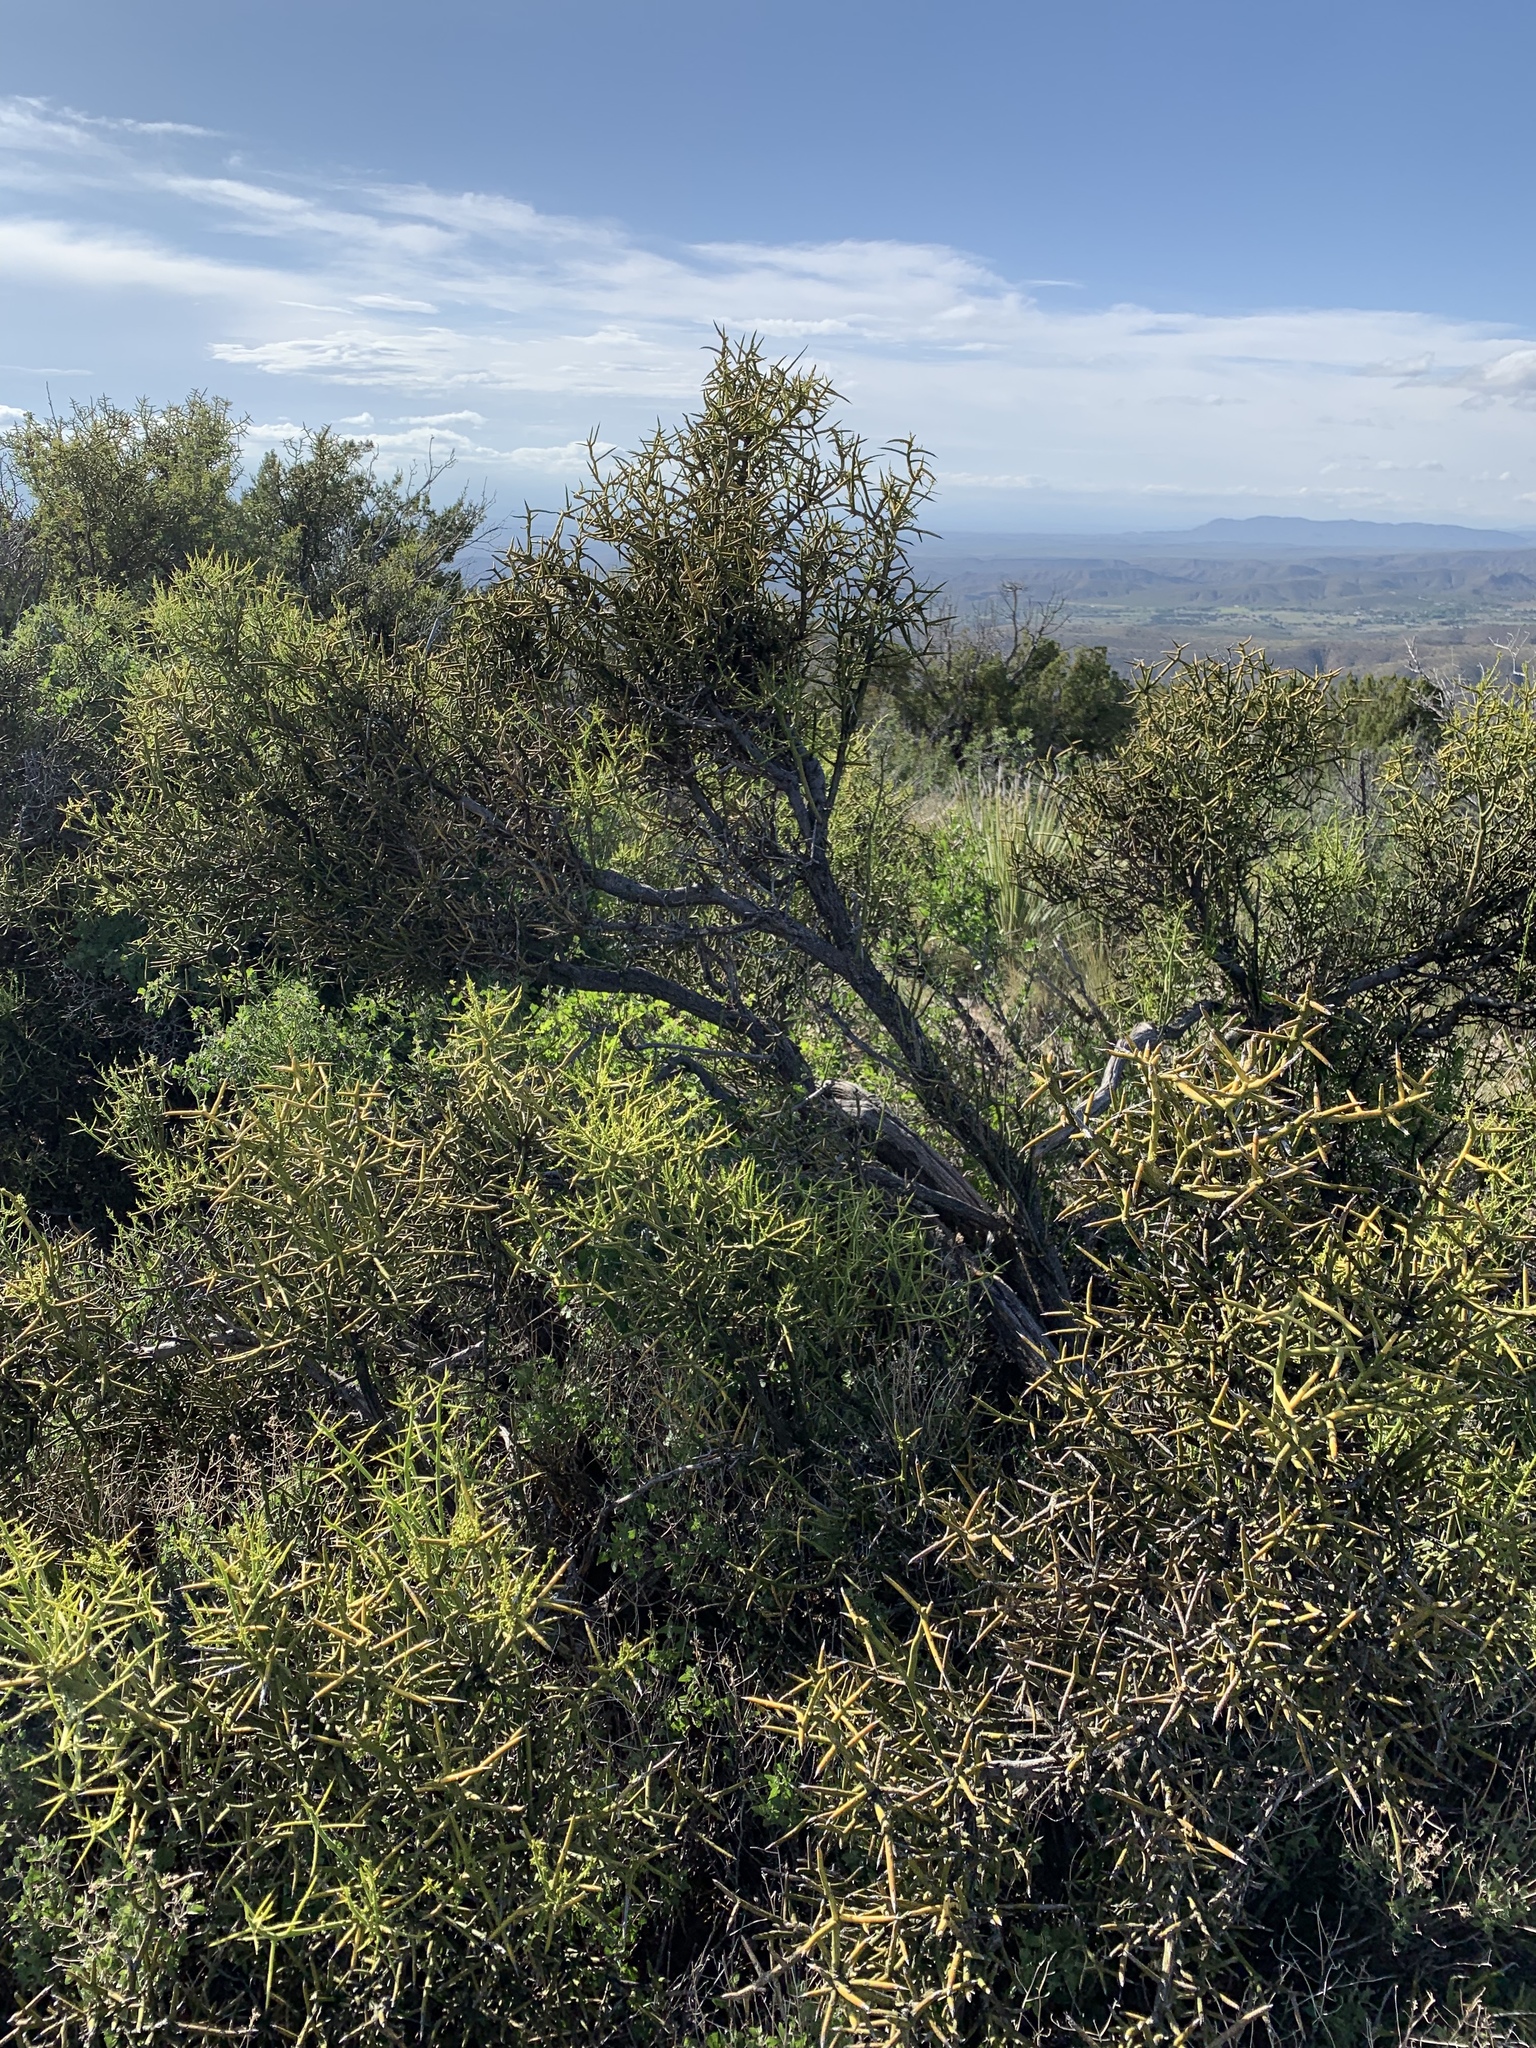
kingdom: Plantae
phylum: Tracheophyta
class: Magnoliopsida
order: Brassicales
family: Koeberliniaceae
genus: Koeberlinia
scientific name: Koeberlinia spinosa
